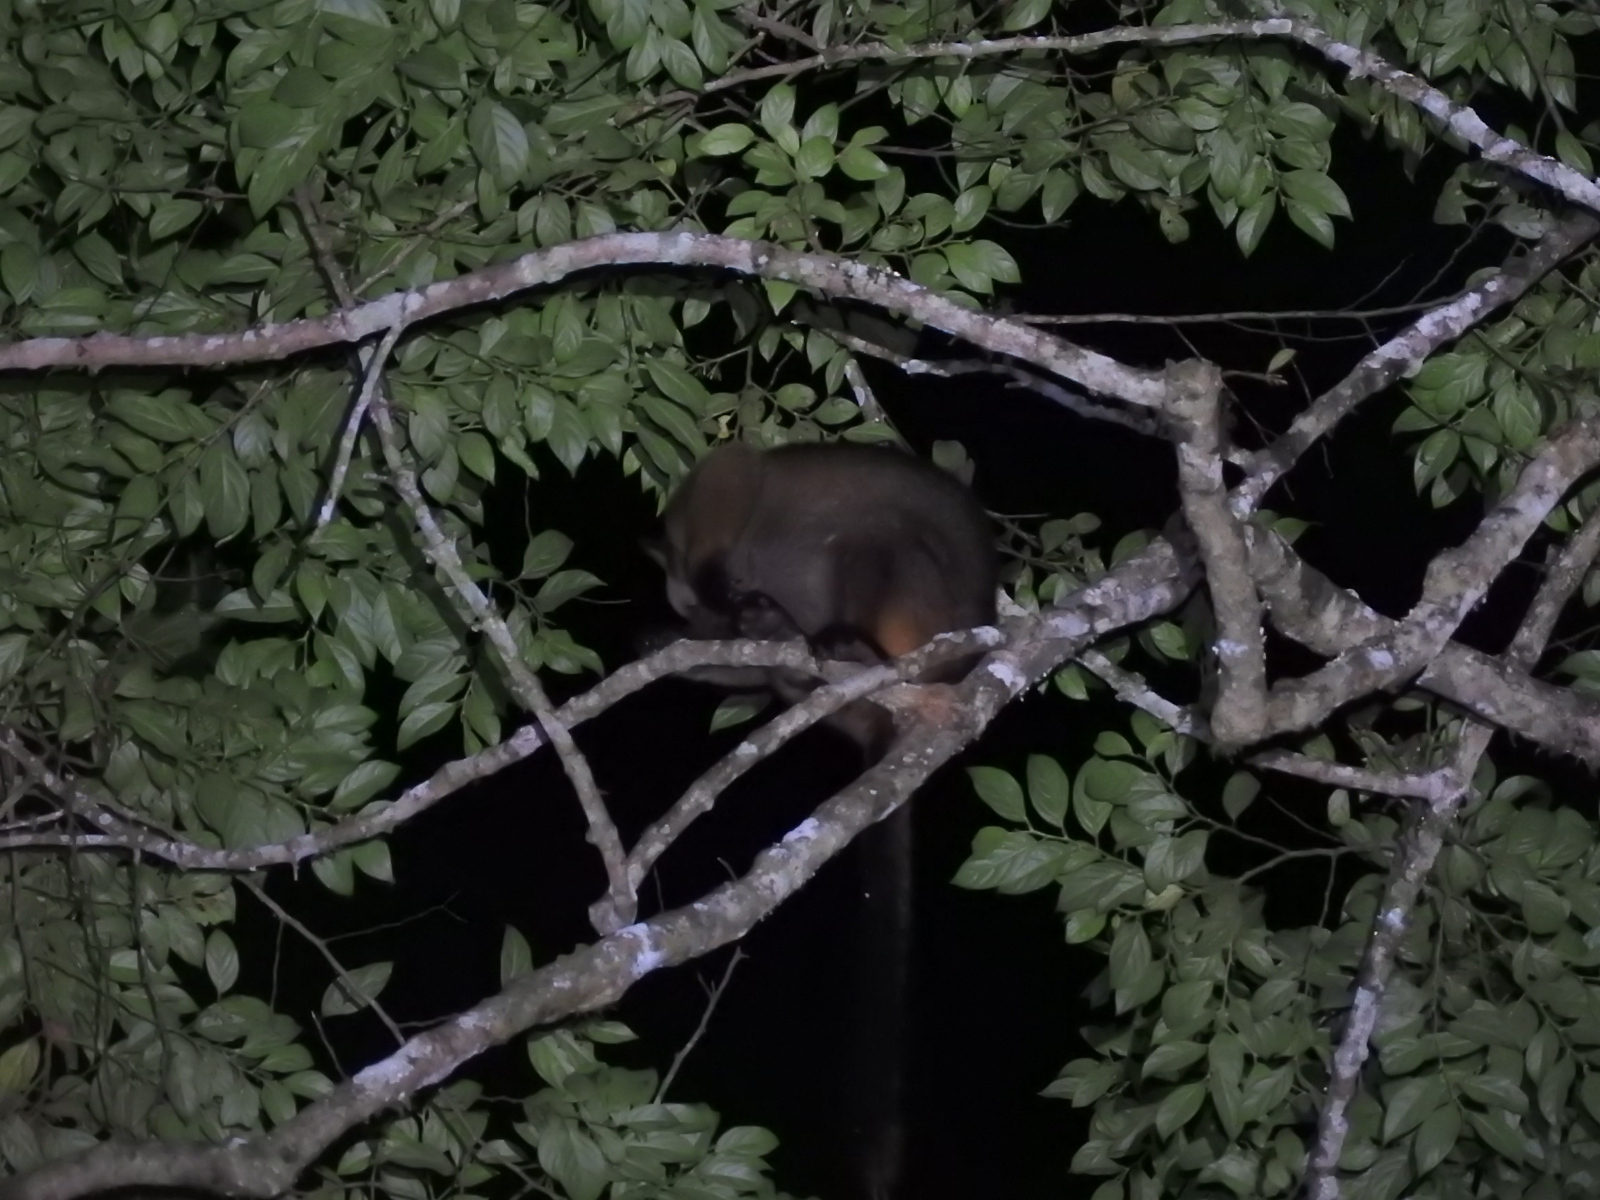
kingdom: Animalia
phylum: Chordata
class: Mammalia
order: Diprotodontia
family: Macropodidae
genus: Dendrolagus
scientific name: Dendrolagus lumholtzi
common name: Lumholtz's tree kangaroo
